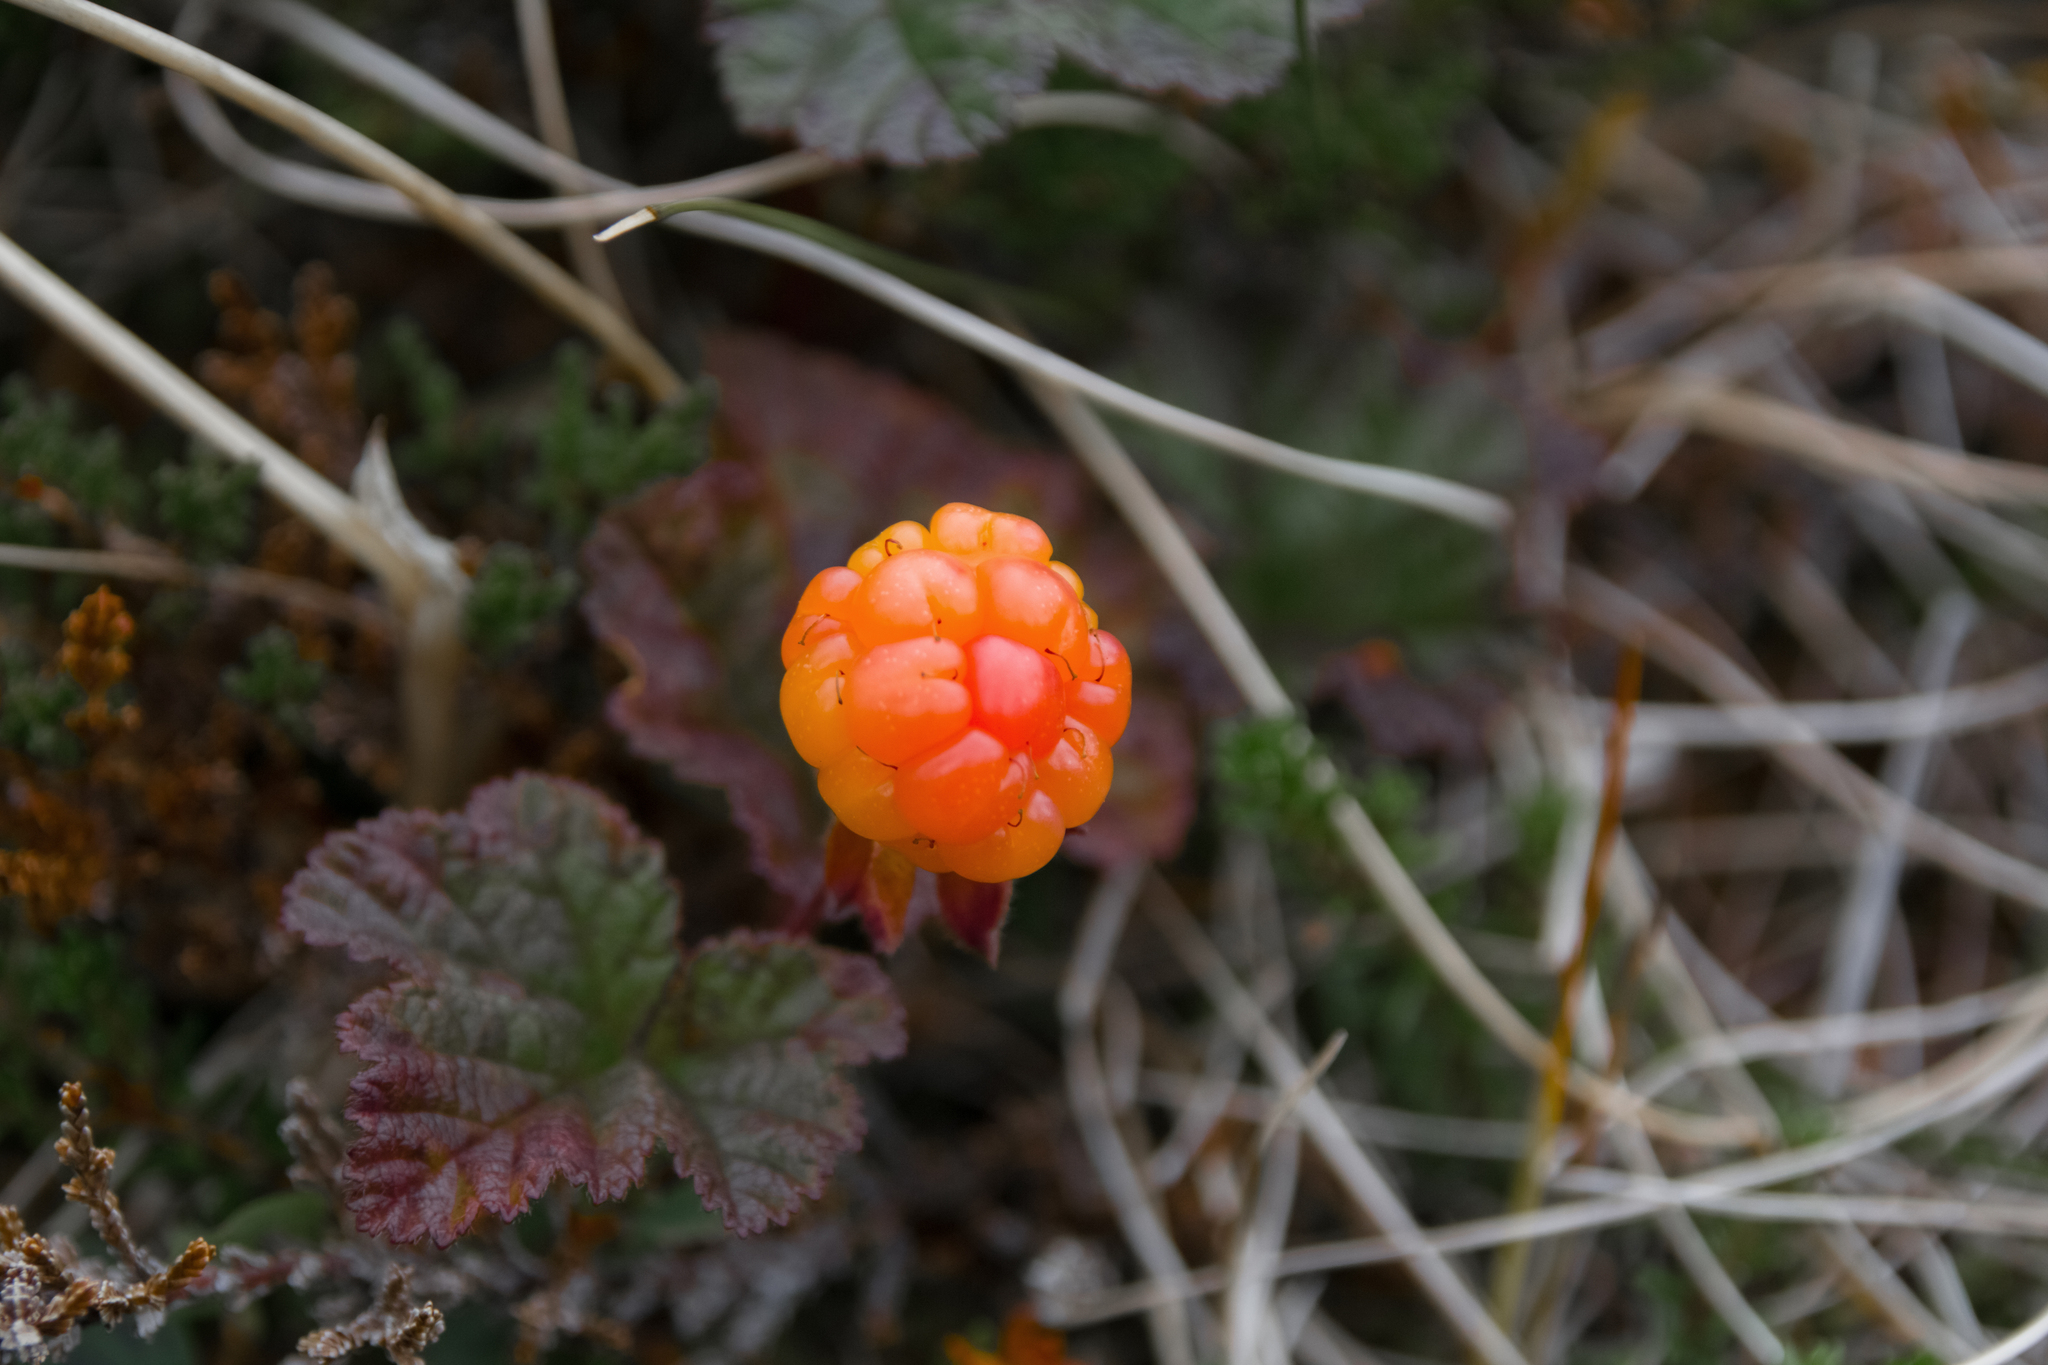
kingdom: Plantae
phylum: Tracheophyta
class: Magnoliopsida
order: Rosales
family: Rosaceae
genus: Rubus
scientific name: Rubus chamaemorus
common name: Cloudberry
